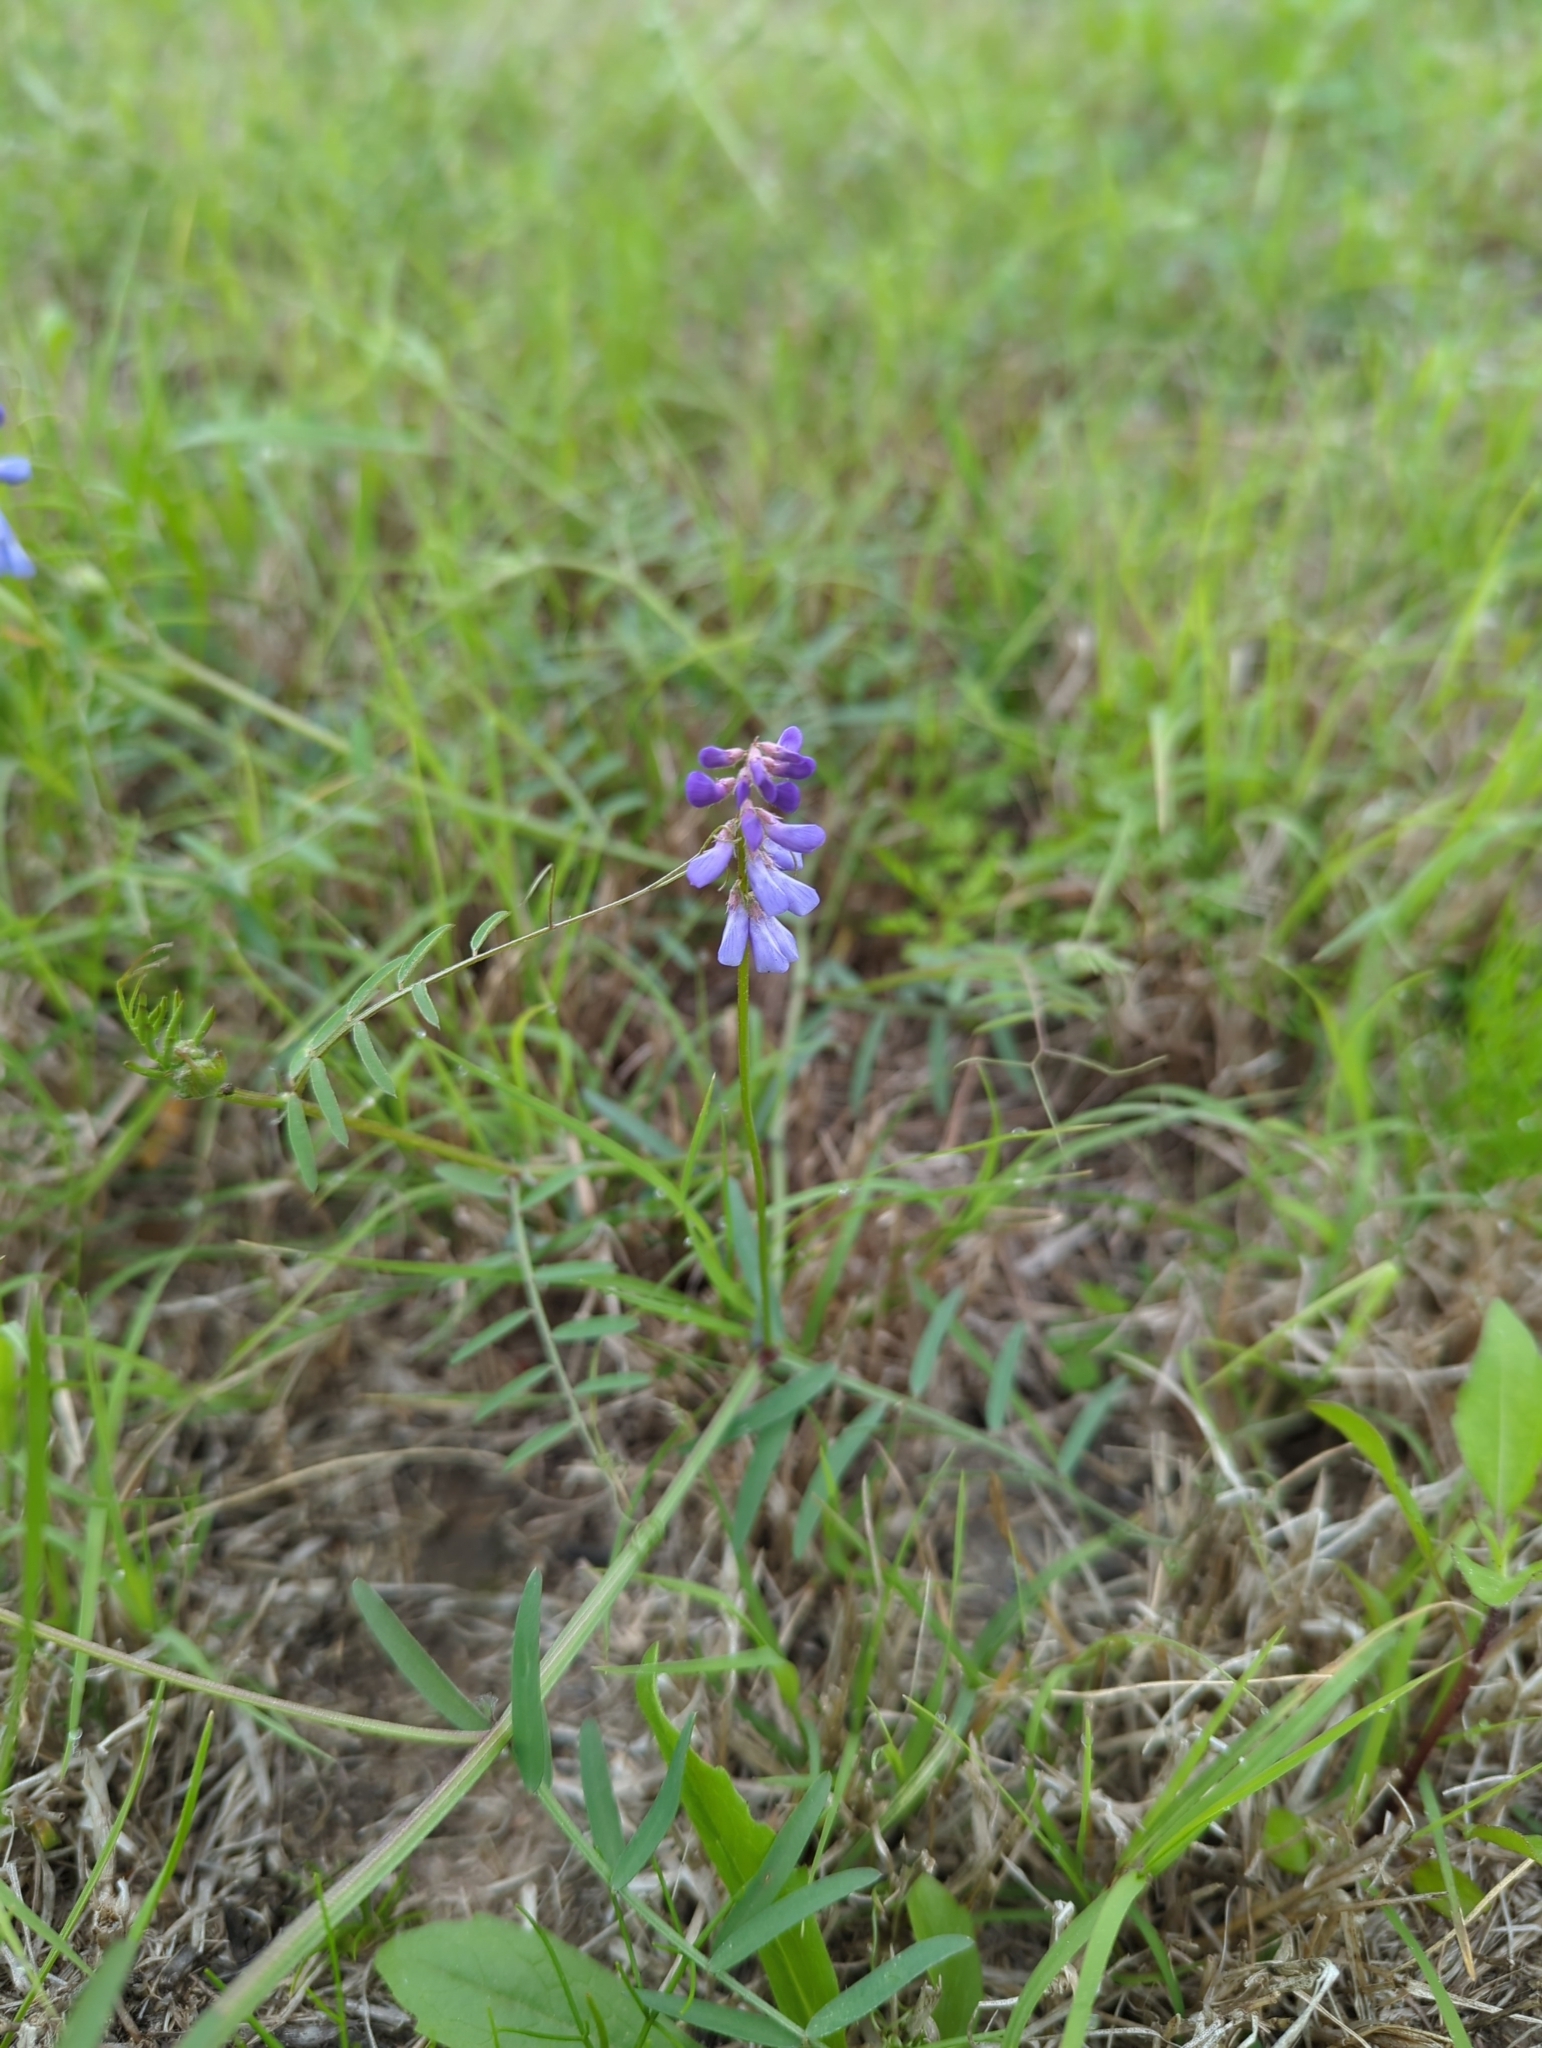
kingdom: Plantae
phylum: Tracheophyta
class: Magnoliopsida
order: Fabales
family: Fabaceae
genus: Vicia
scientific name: Vicia ludoviciana
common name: Louisiana vetch
